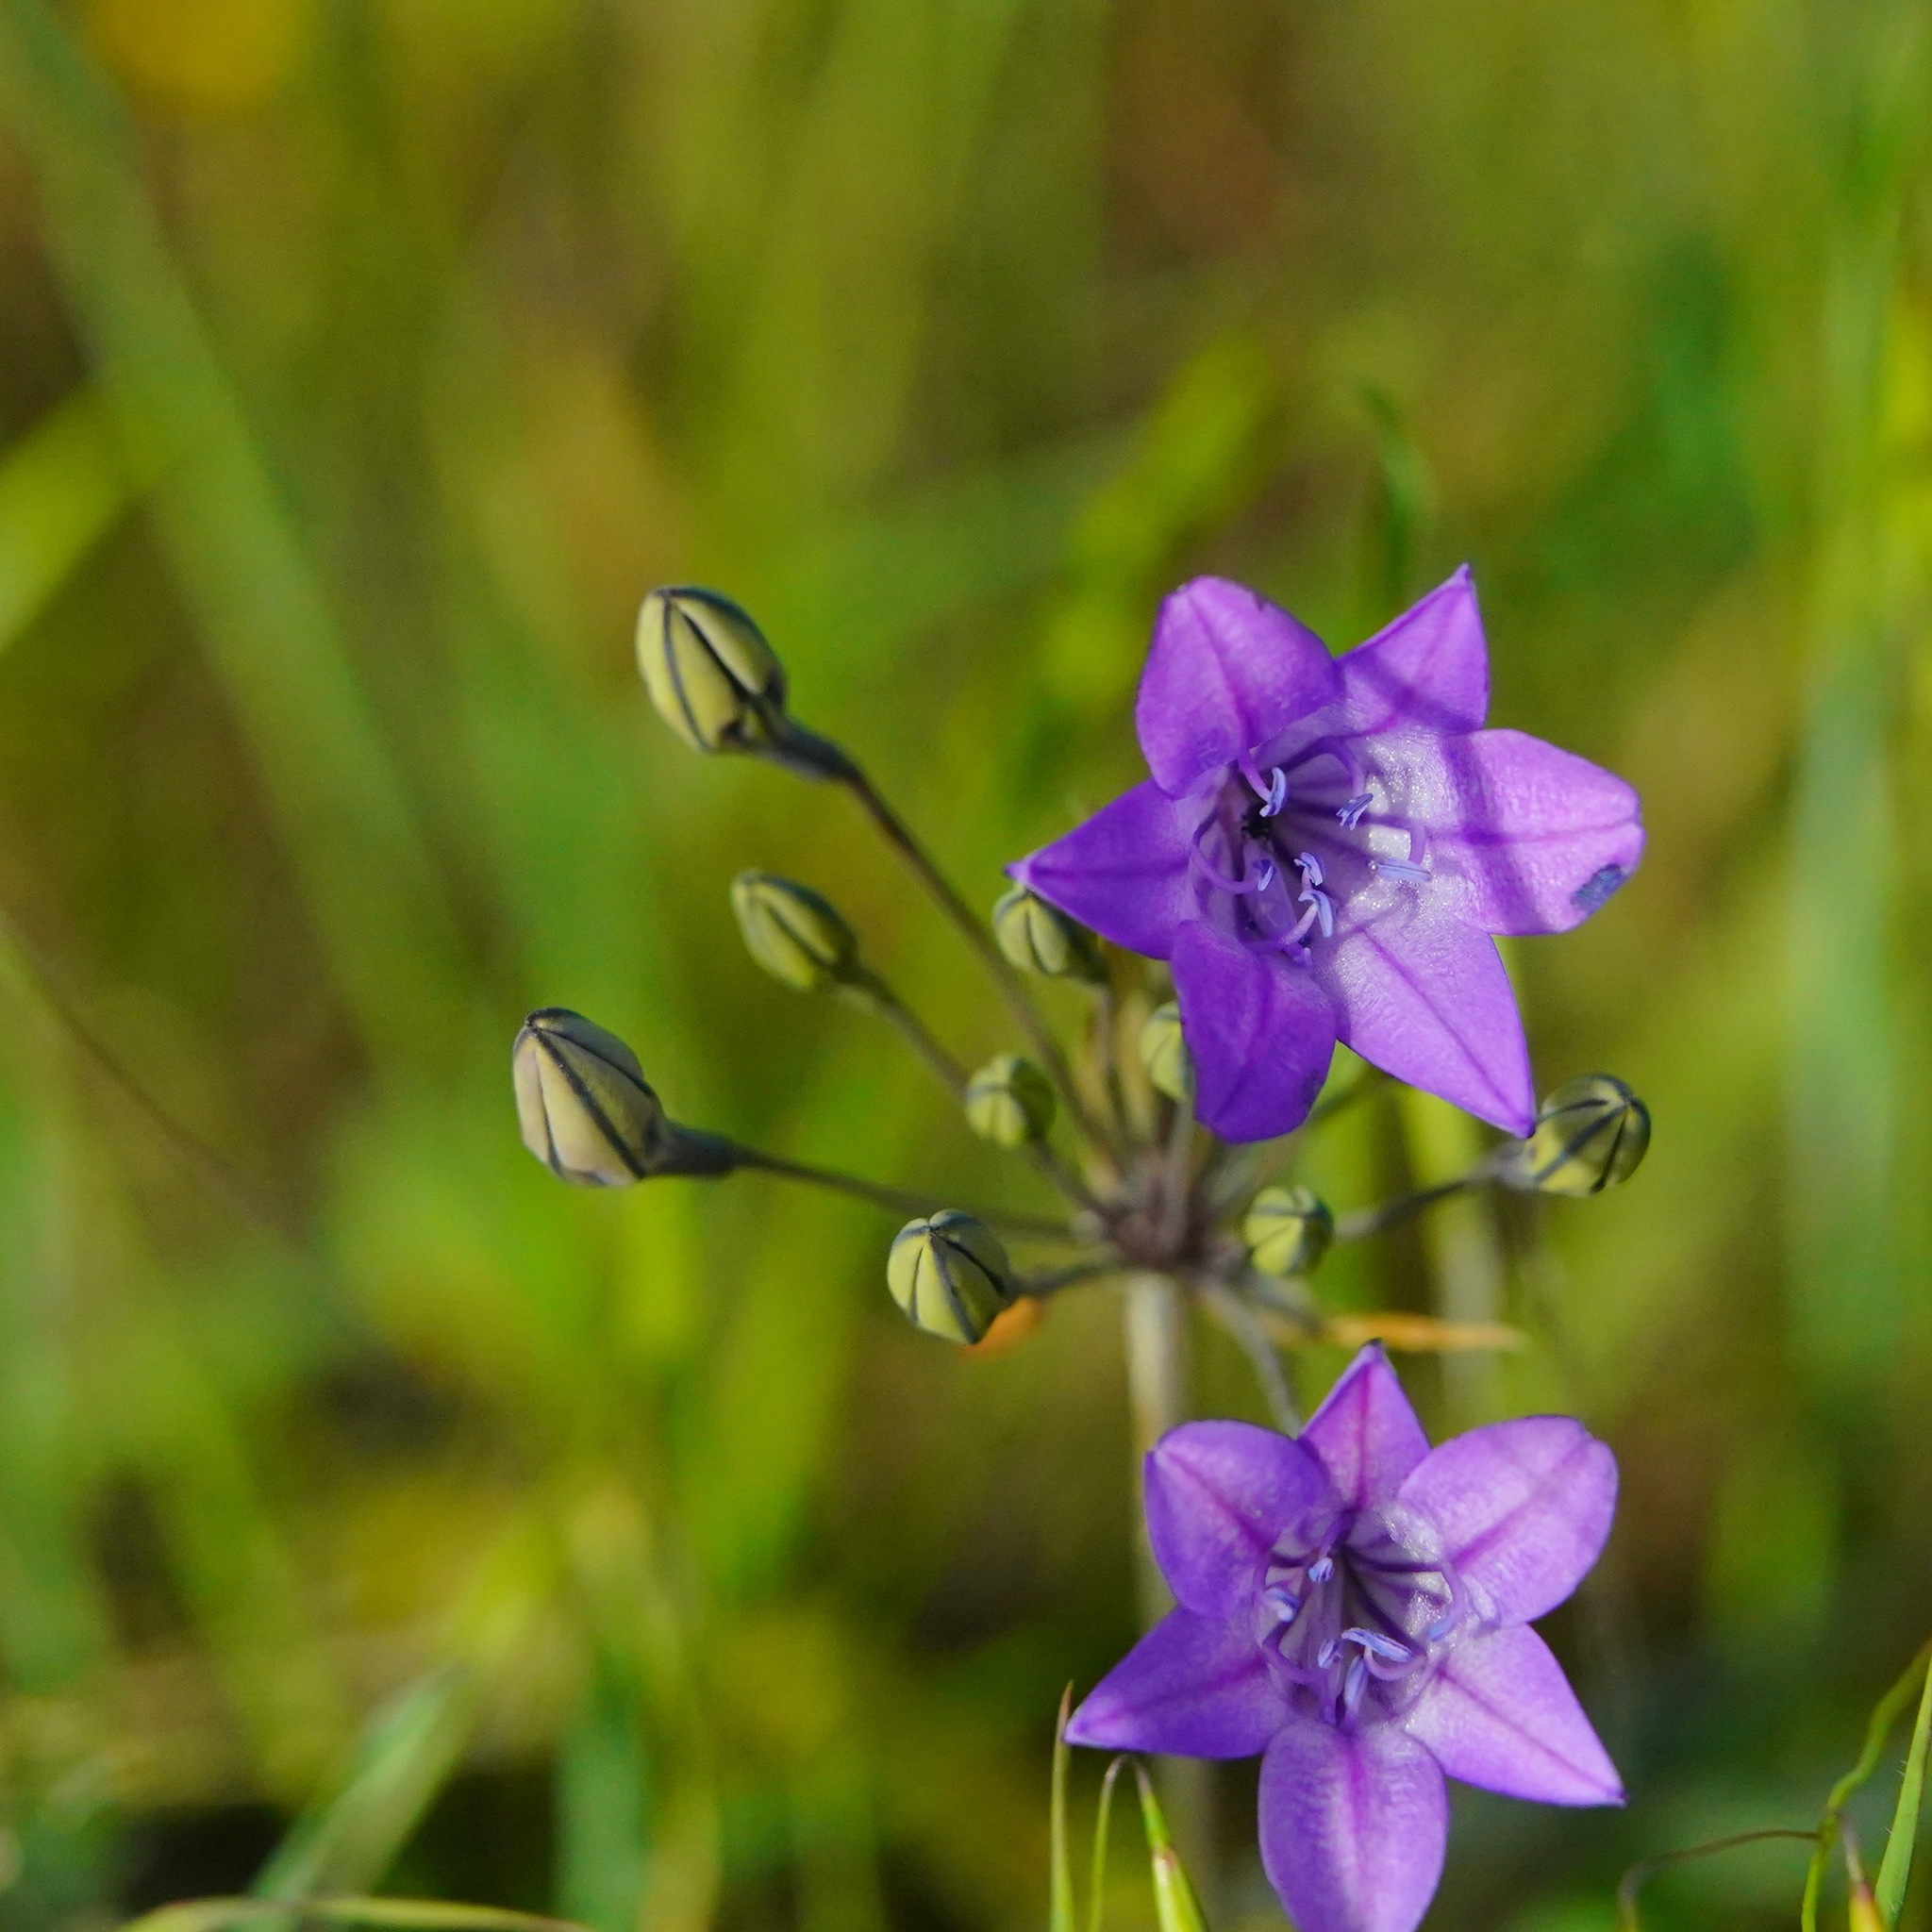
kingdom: Plantae
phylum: Tracheophyta
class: Liliopsida
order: Asparagales
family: Asparagaceae
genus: Triteleia
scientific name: Triteleia laxa
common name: Triplet-lily
